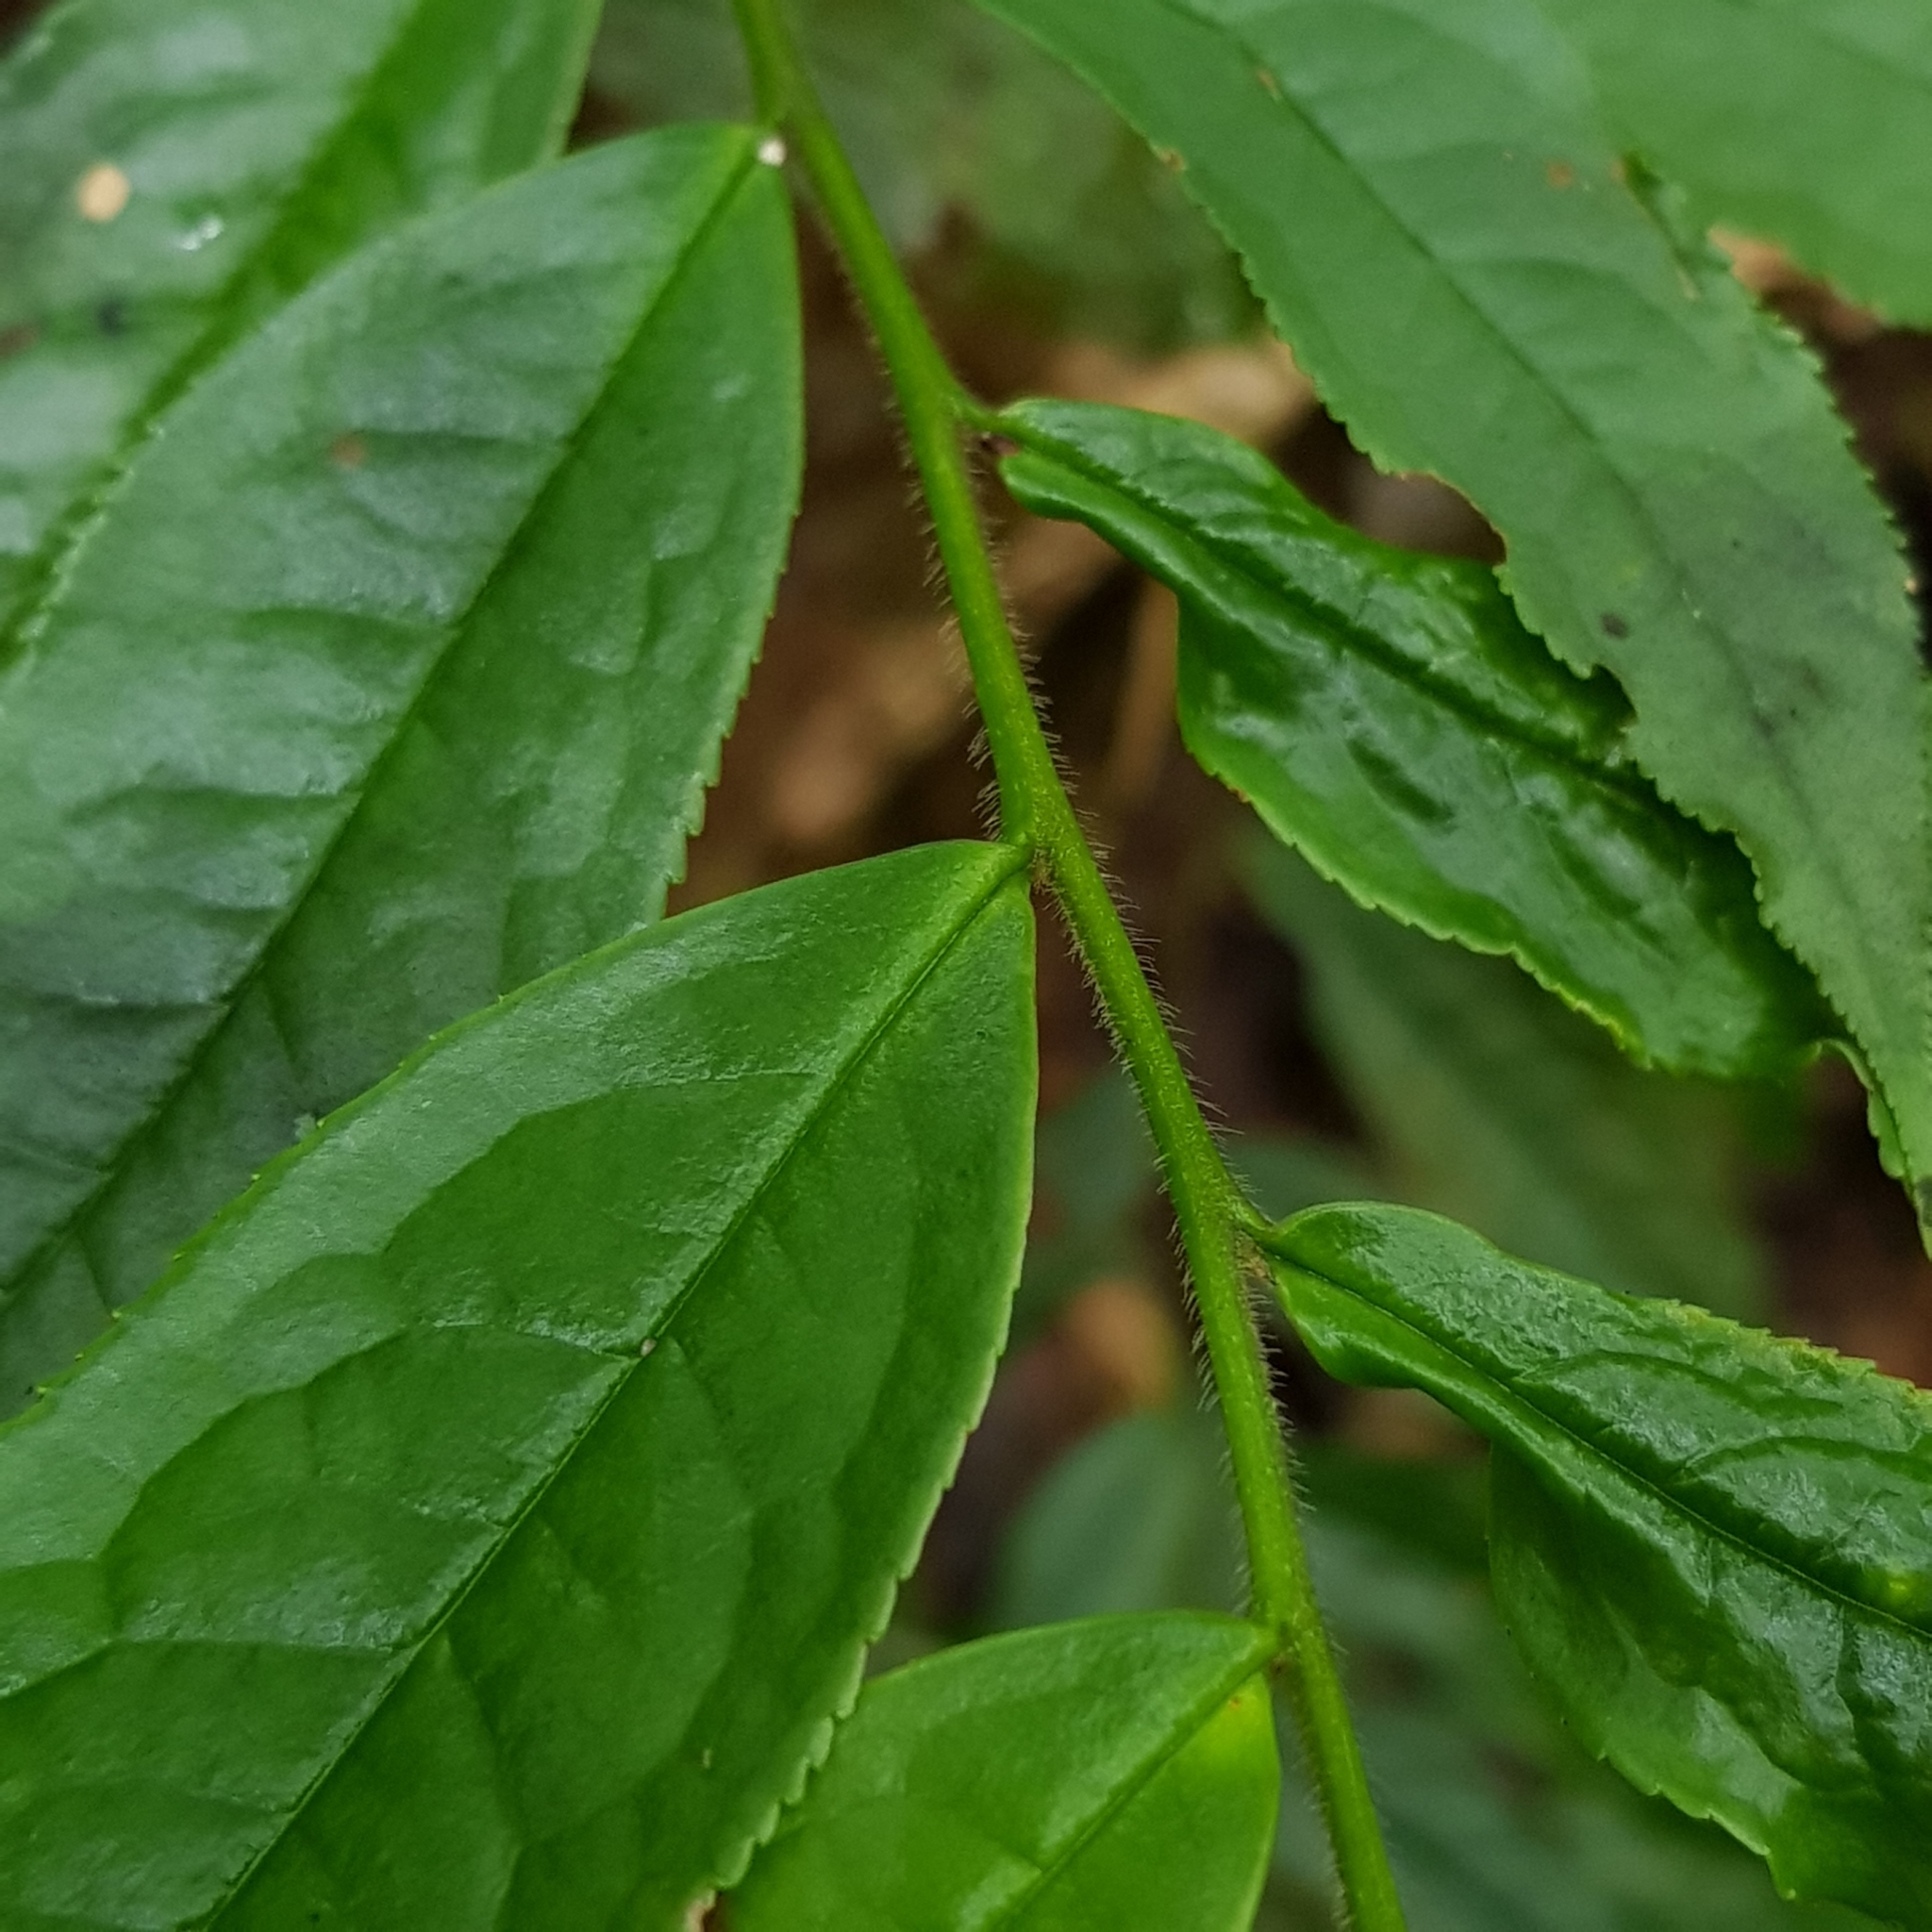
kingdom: Plantae
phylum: Tracheophyta
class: Magnoliopsida
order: Ericales
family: Pentaphylacaceae
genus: Eurya
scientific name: Eurya acuminata
